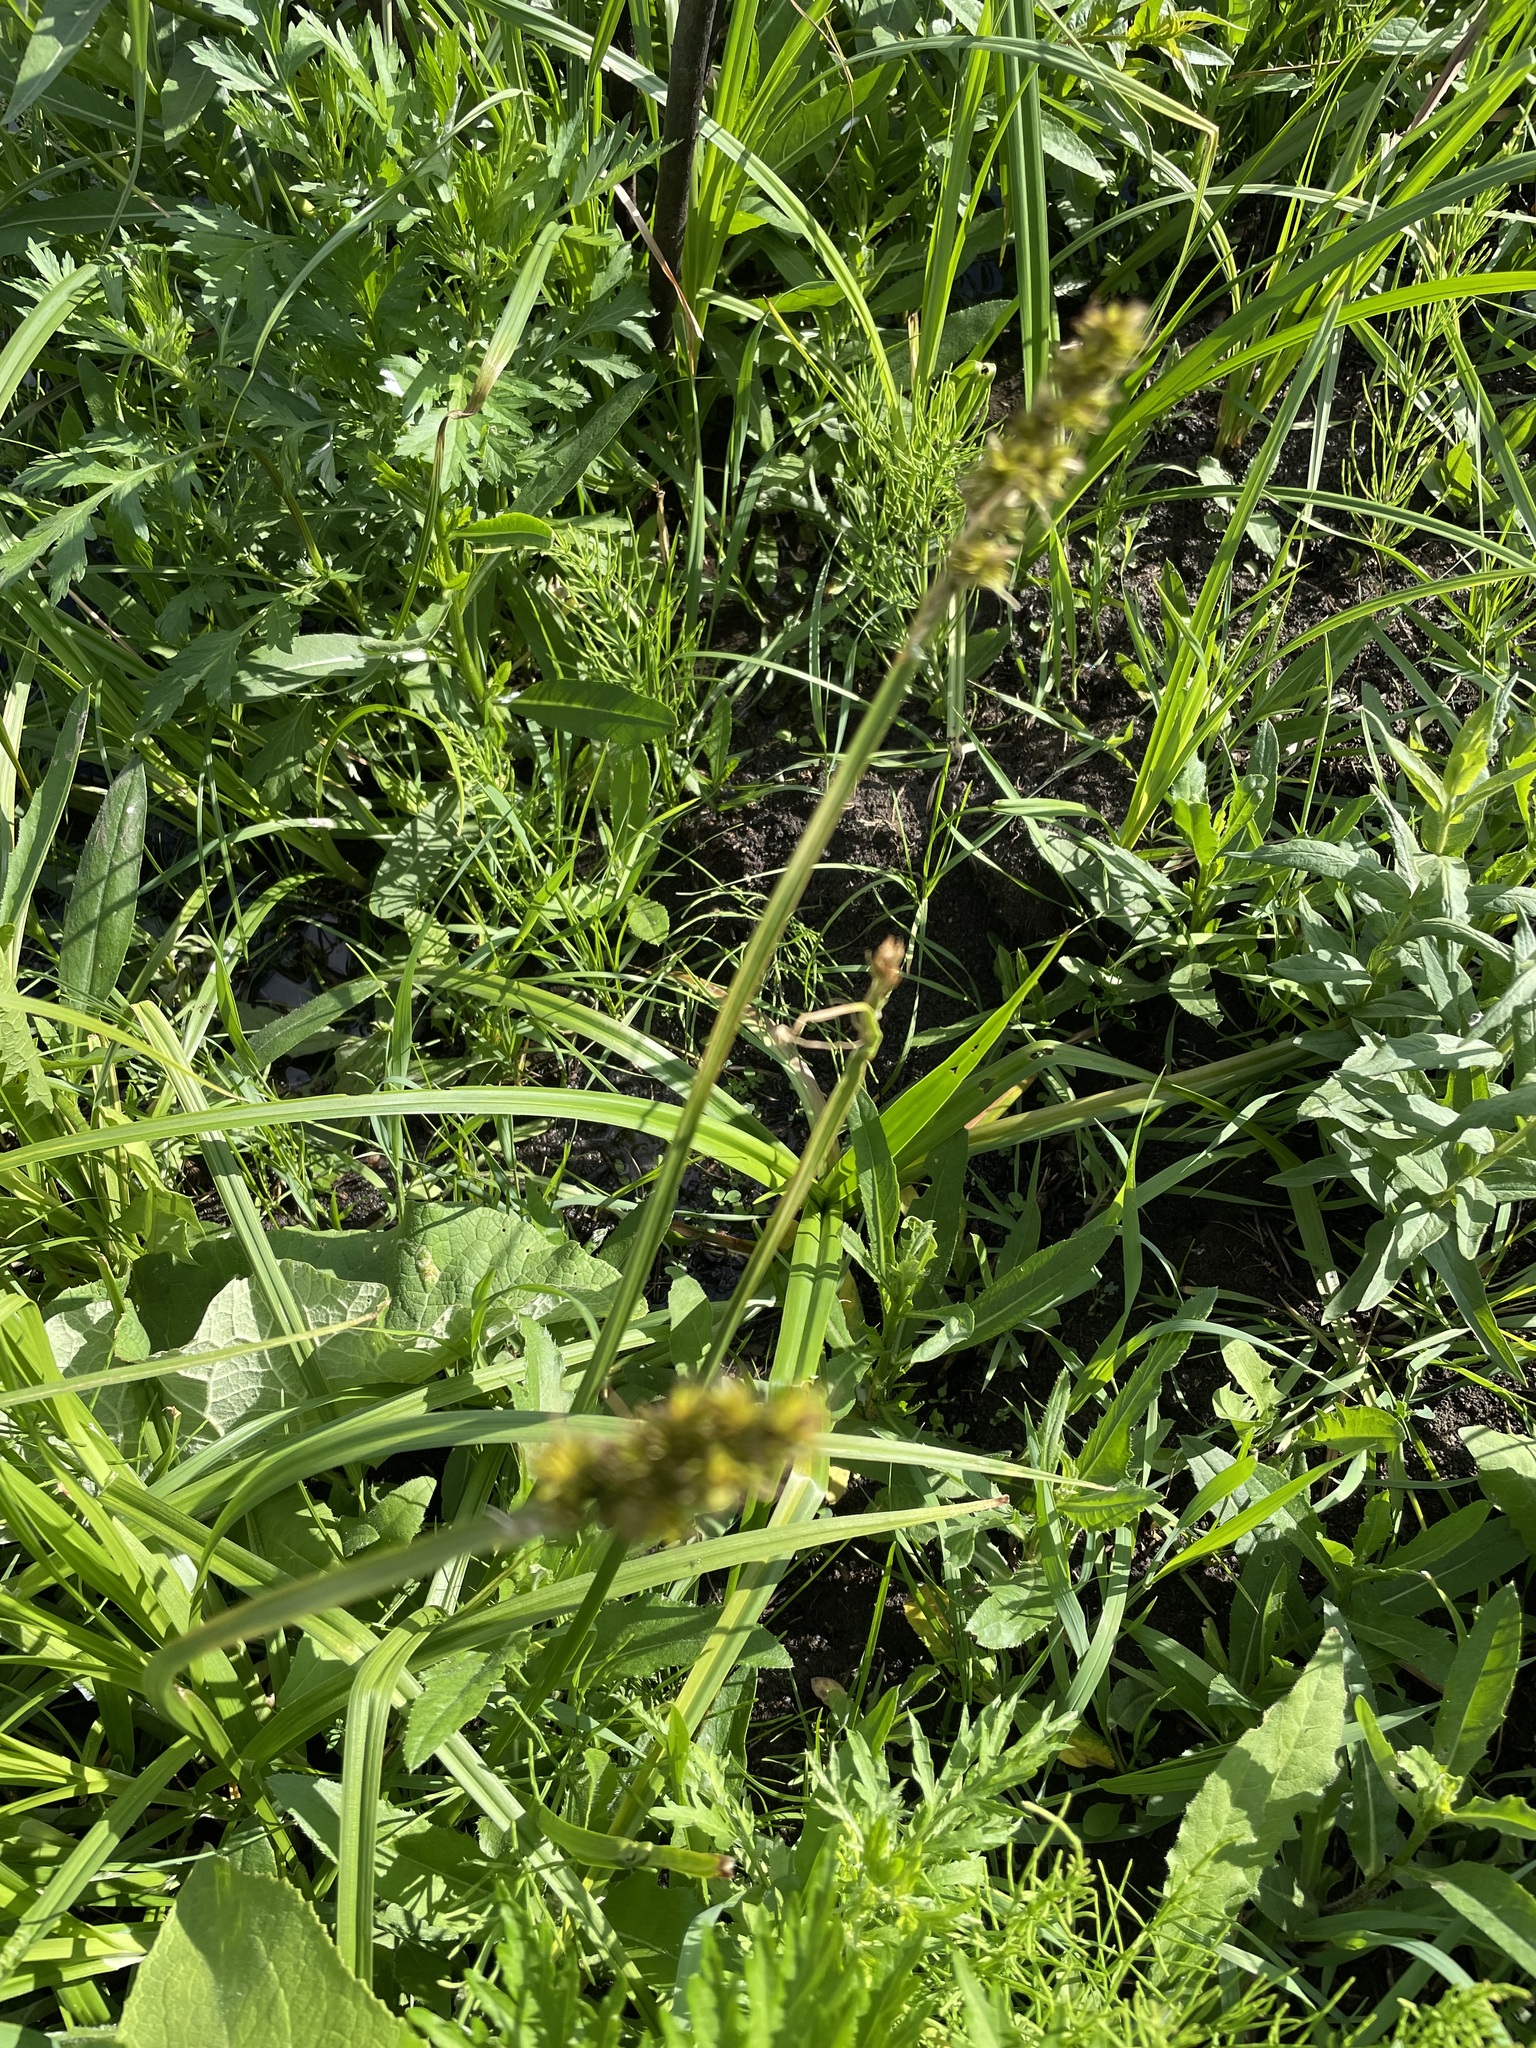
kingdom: Plantae
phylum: Tracheophyta
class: Liliopsida
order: Poales
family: Cyperaceae
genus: Carex
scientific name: Carex vulpina
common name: True fox-sedge
